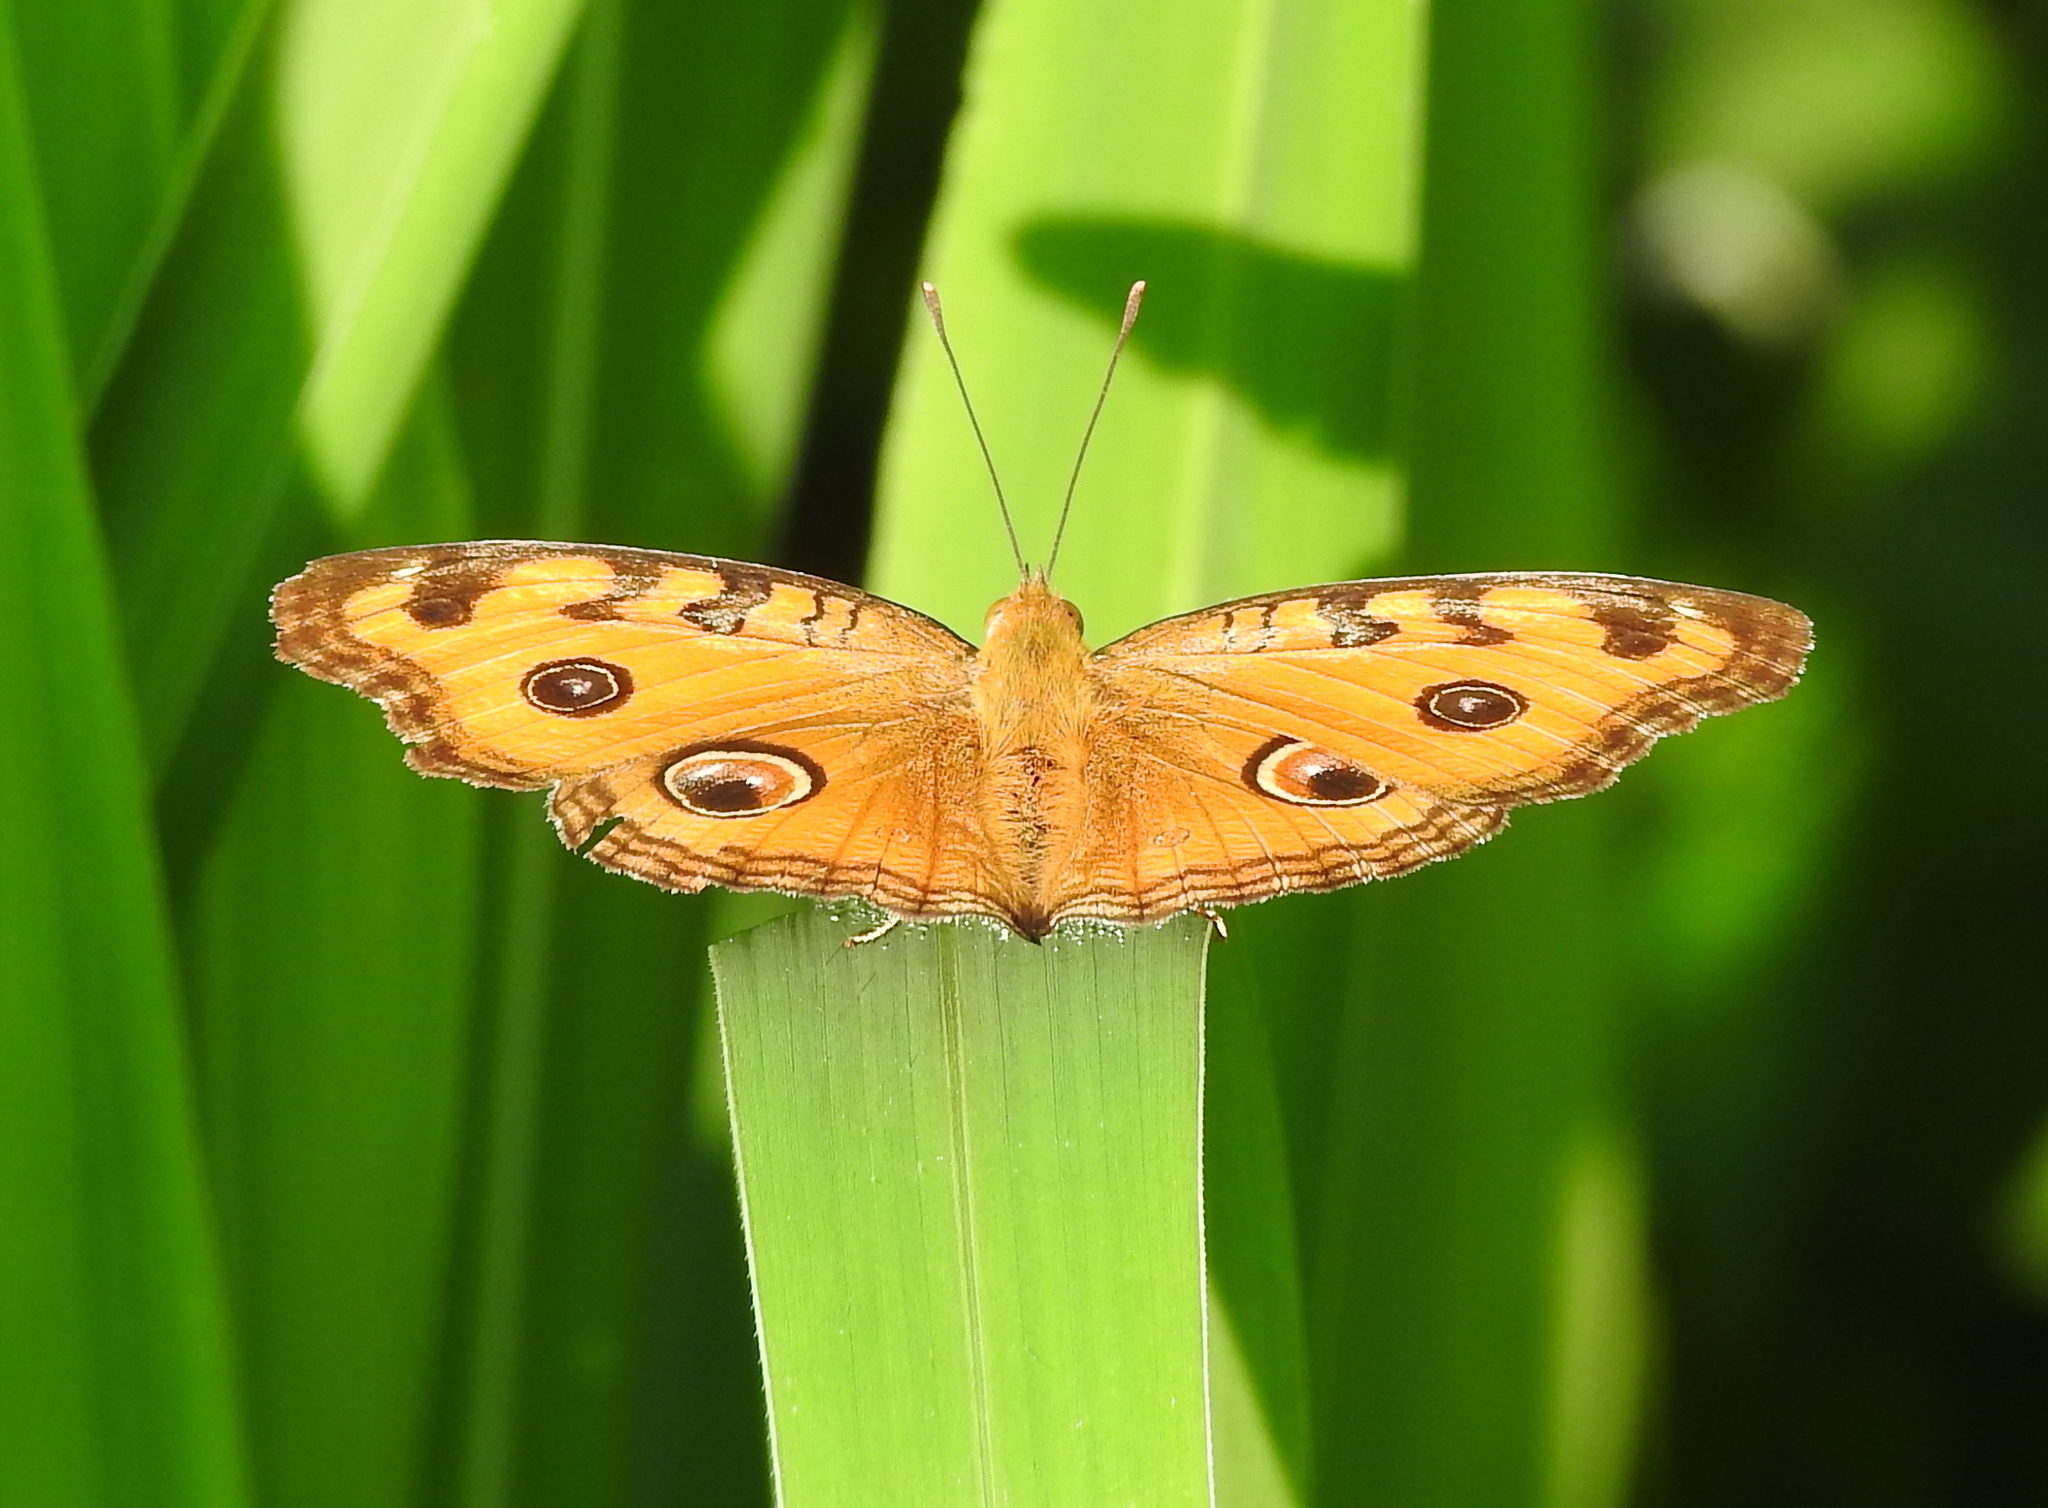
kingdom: Animalia
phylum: Arthropoda
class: Insecta
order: Lepidoptera
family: Nymphalidae
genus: Junonia
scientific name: Junonia almana
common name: Peacock pansy
